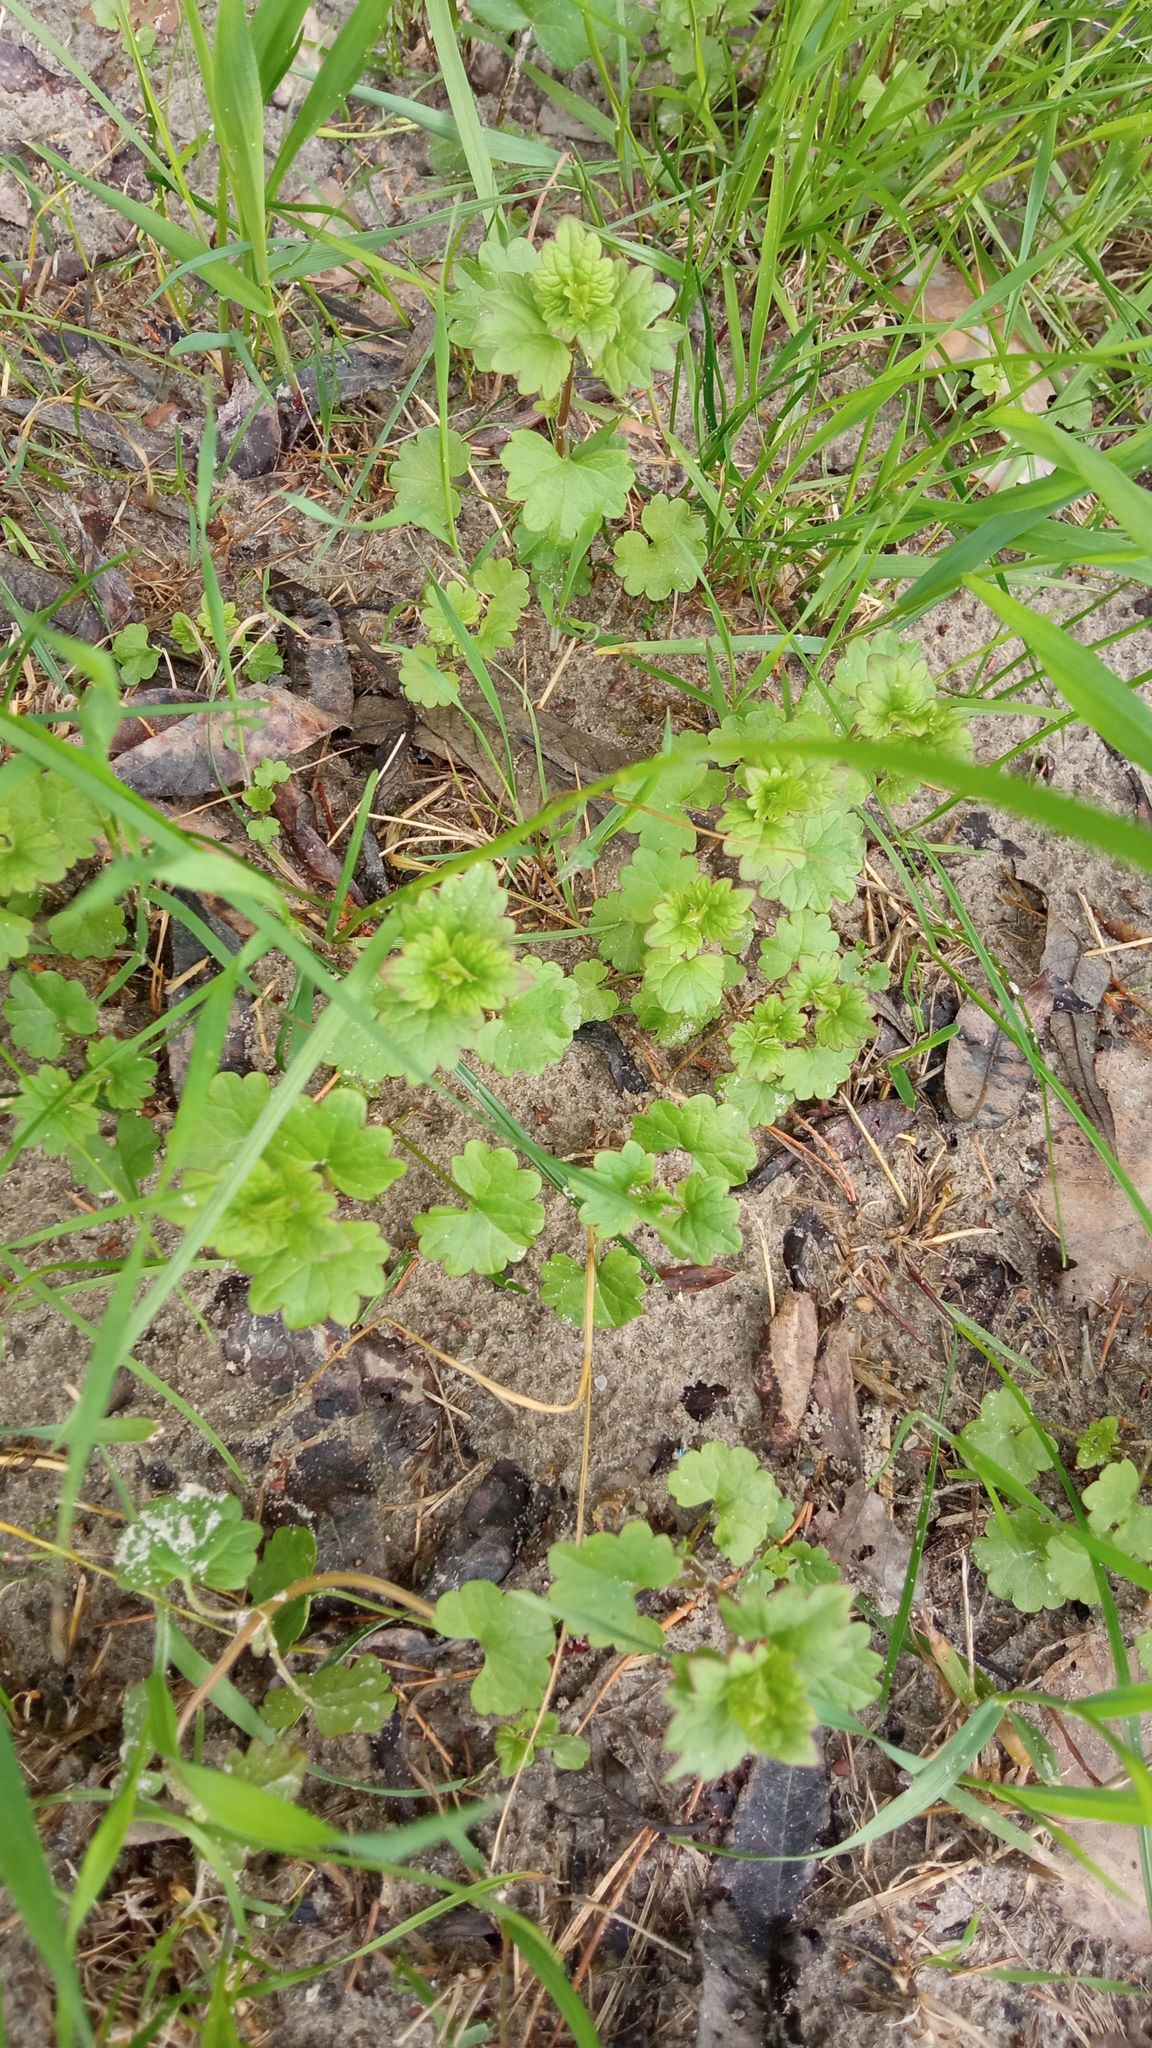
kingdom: Plantae
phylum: Tracheophyta
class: Magnoliopsida
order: Lamiales
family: Lamiaceae
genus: Glechoma
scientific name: Glechoma hederacea
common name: Ground ivy
